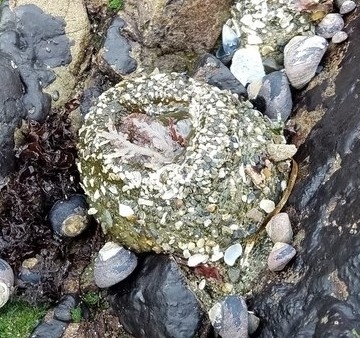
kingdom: Animalia
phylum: Cnidaria
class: Anthozoa
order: Actiniaria
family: Actiniidae
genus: Anthopleura
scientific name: Anthopleura elegantissima
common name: Clonal anemone
